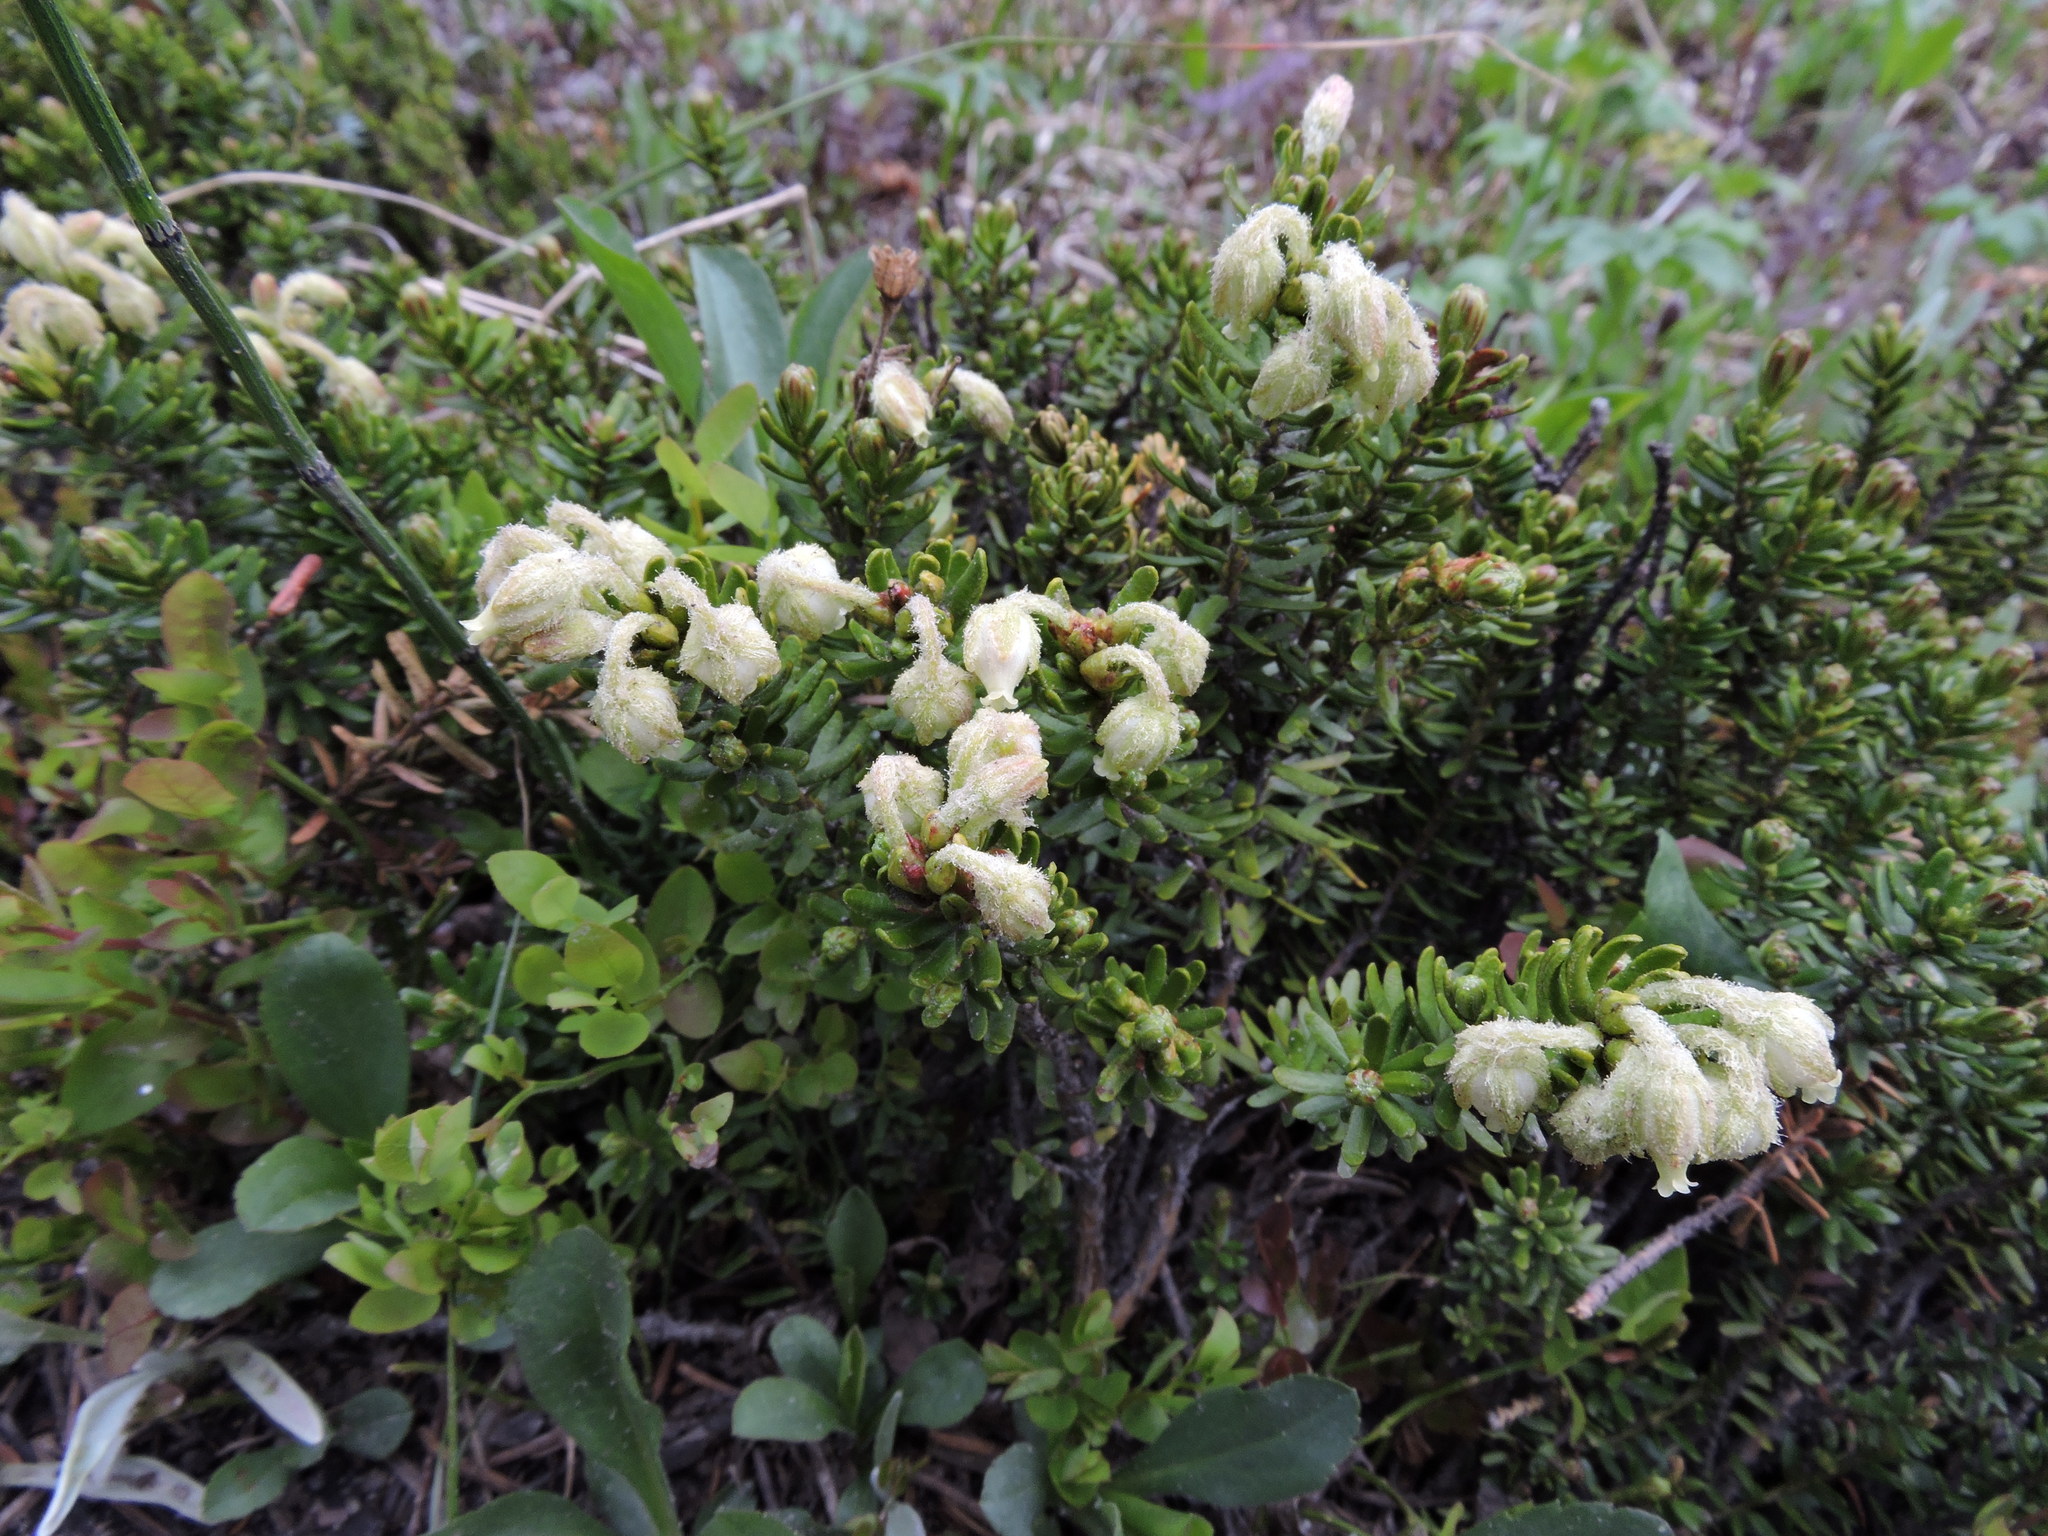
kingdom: Plantae
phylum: Tracheophyta
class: Magnoliopsida
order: Ericales
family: Ericaceae
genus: Phyllodoce
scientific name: Phyllodoce glanduliflora
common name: Cream mountain heather
